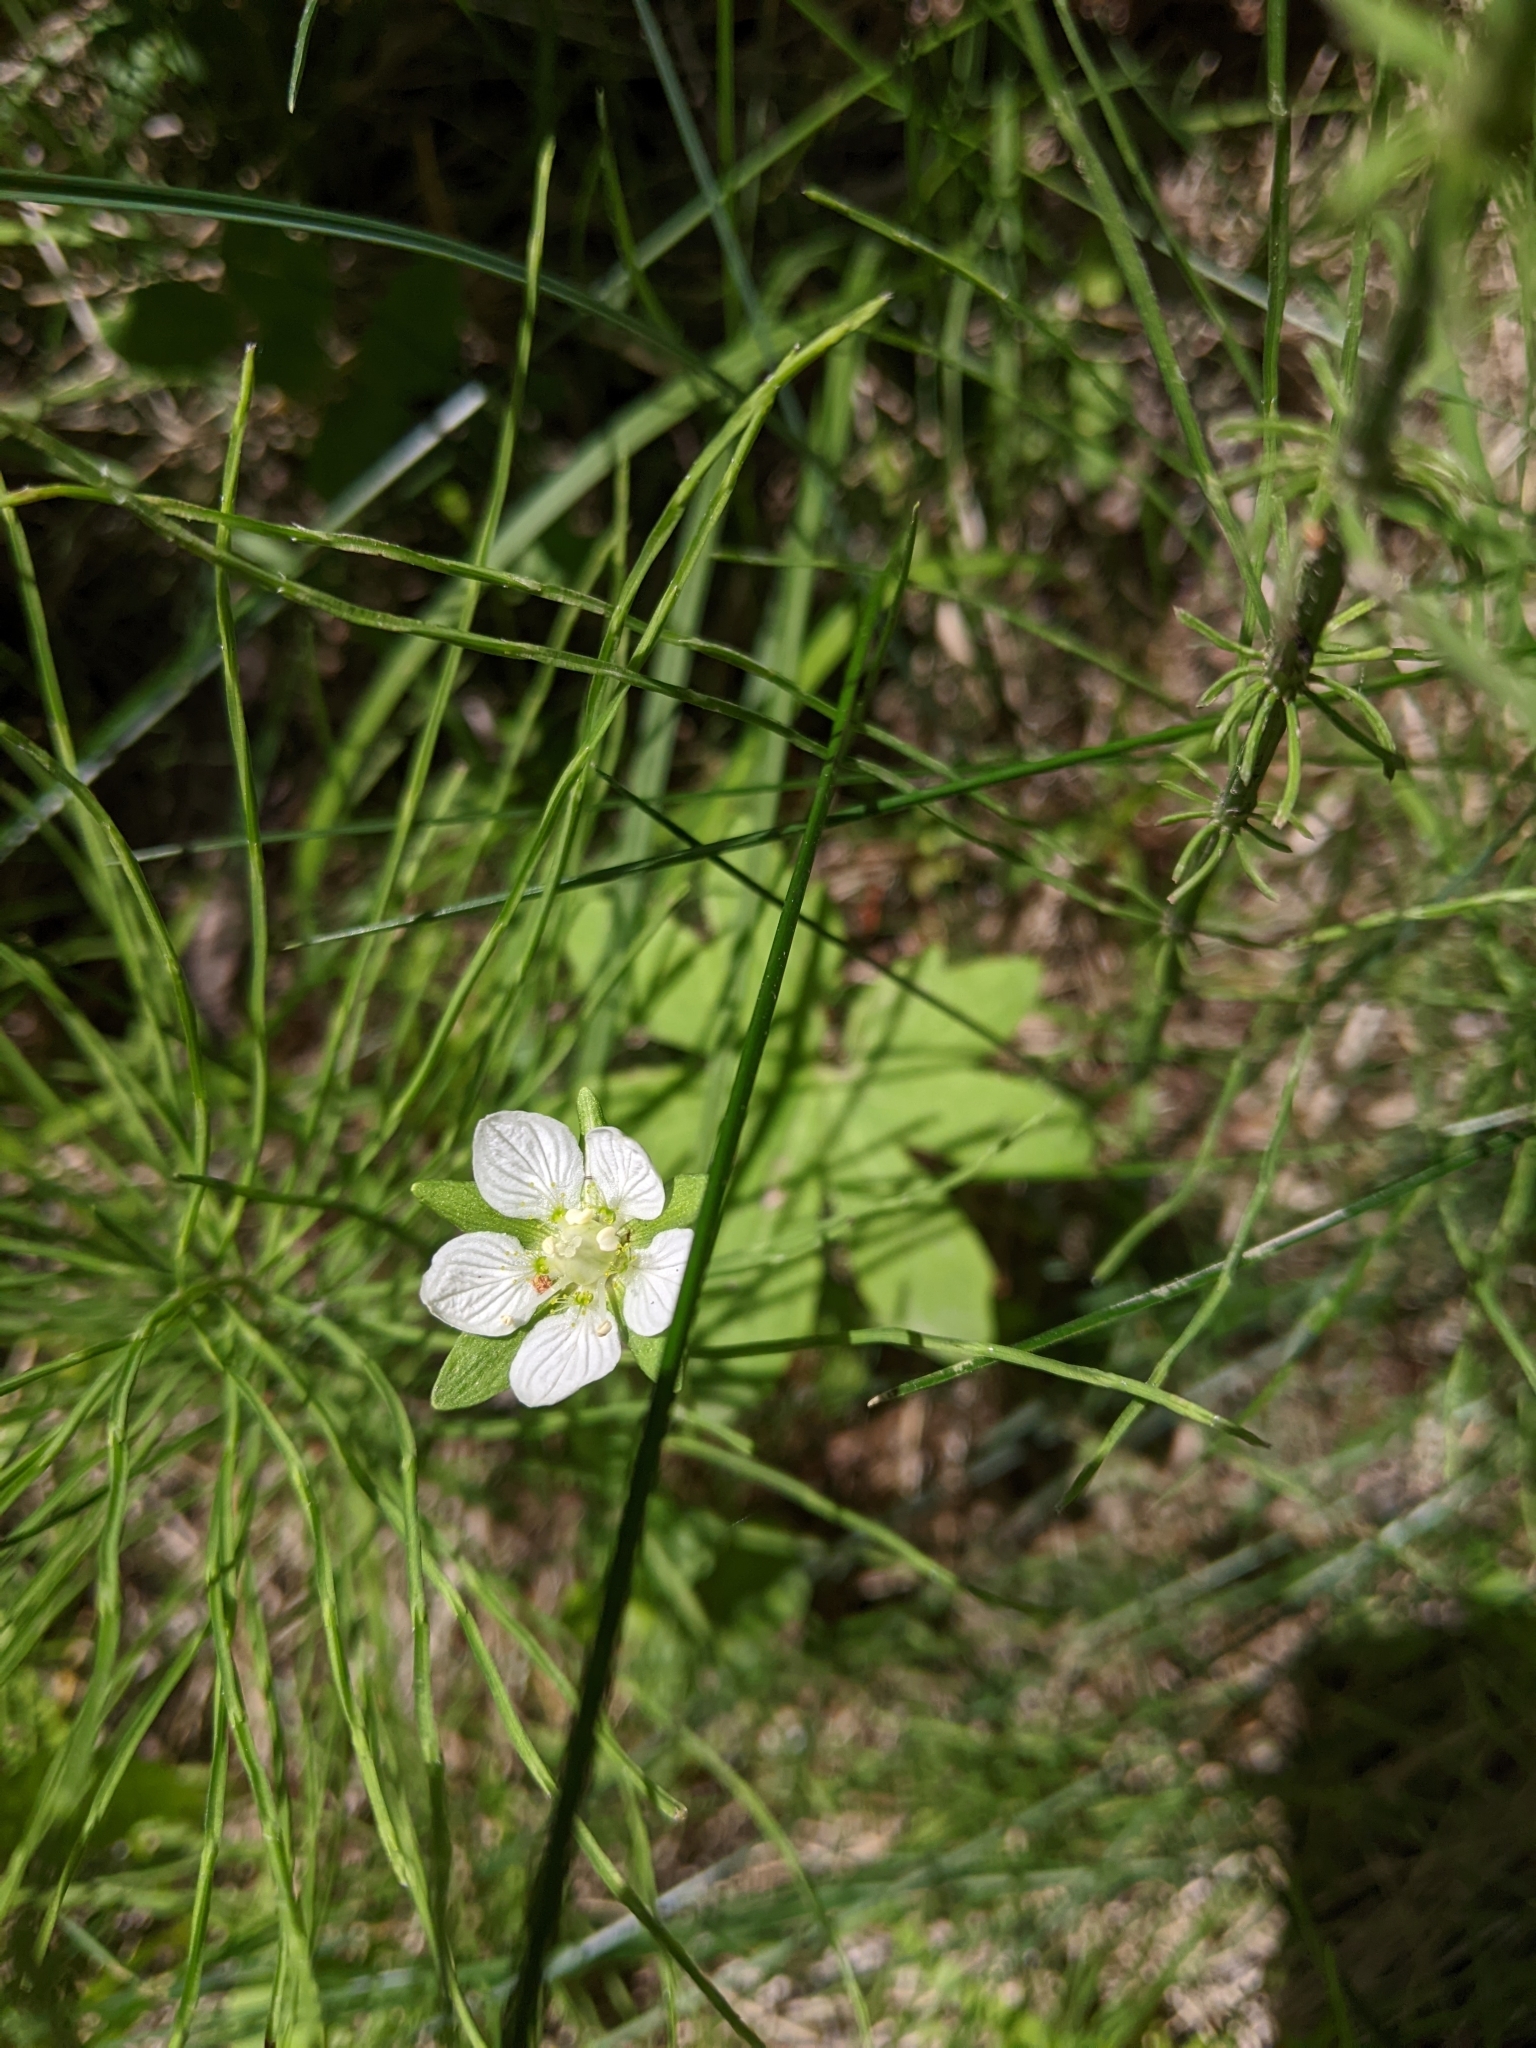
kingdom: Plantae
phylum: Tracheophyta
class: Magnoliopsida
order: Celastrales
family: Parnassiaceae
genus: Parnassia
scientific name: Parnassia palustris
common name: Grass-of-parnassus
